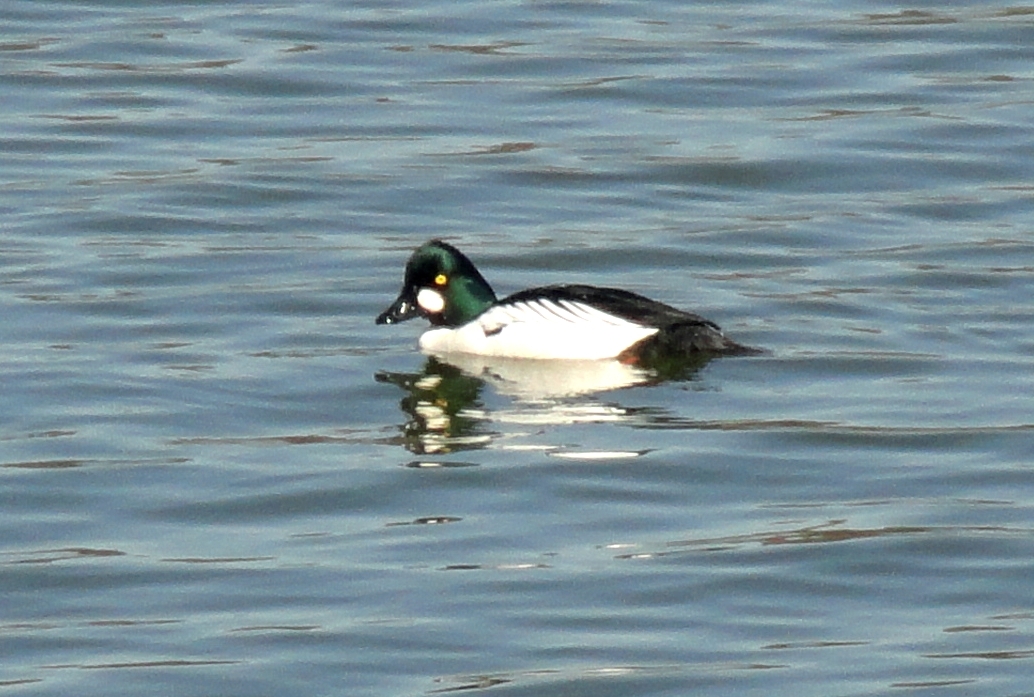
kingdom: Animalia
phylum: Chordata
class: Aves
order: Anseriformes
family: Anatidae
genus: Bucephala
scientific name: Bucephala clangula
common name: Common goldeneye
